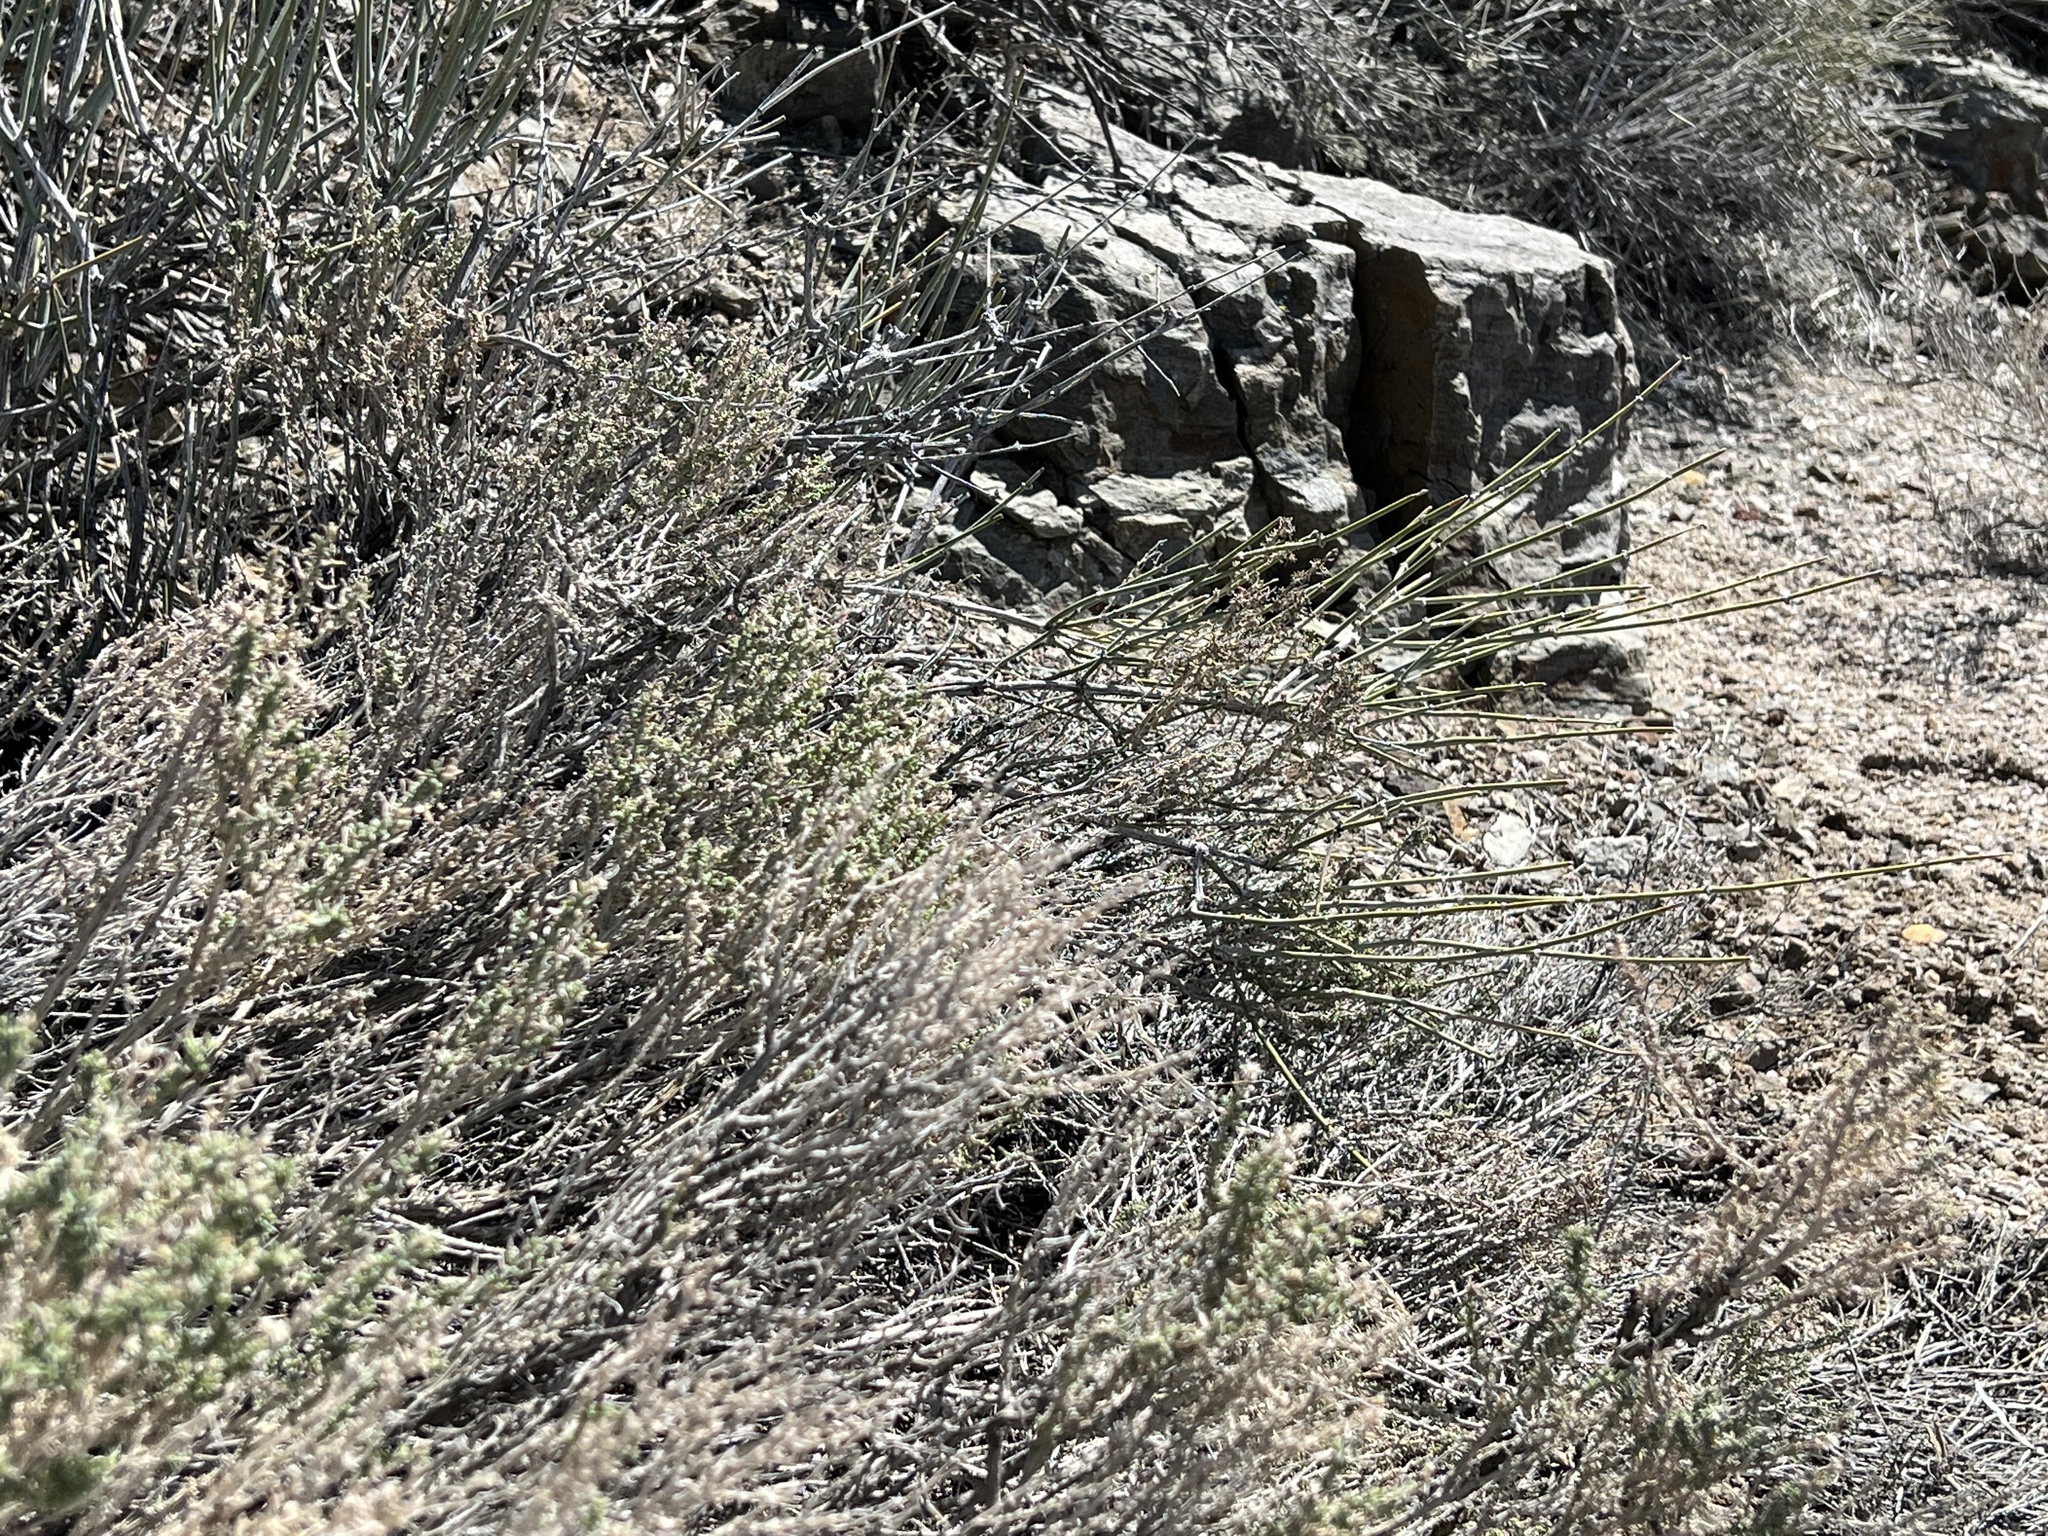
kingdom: Plantae
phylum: Tracheophyta
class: Magnoliopsida
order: Asterales
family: Asteraceae
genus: Ericameria
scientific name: Ericameria cooperi
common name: Cooper's goldenbush
